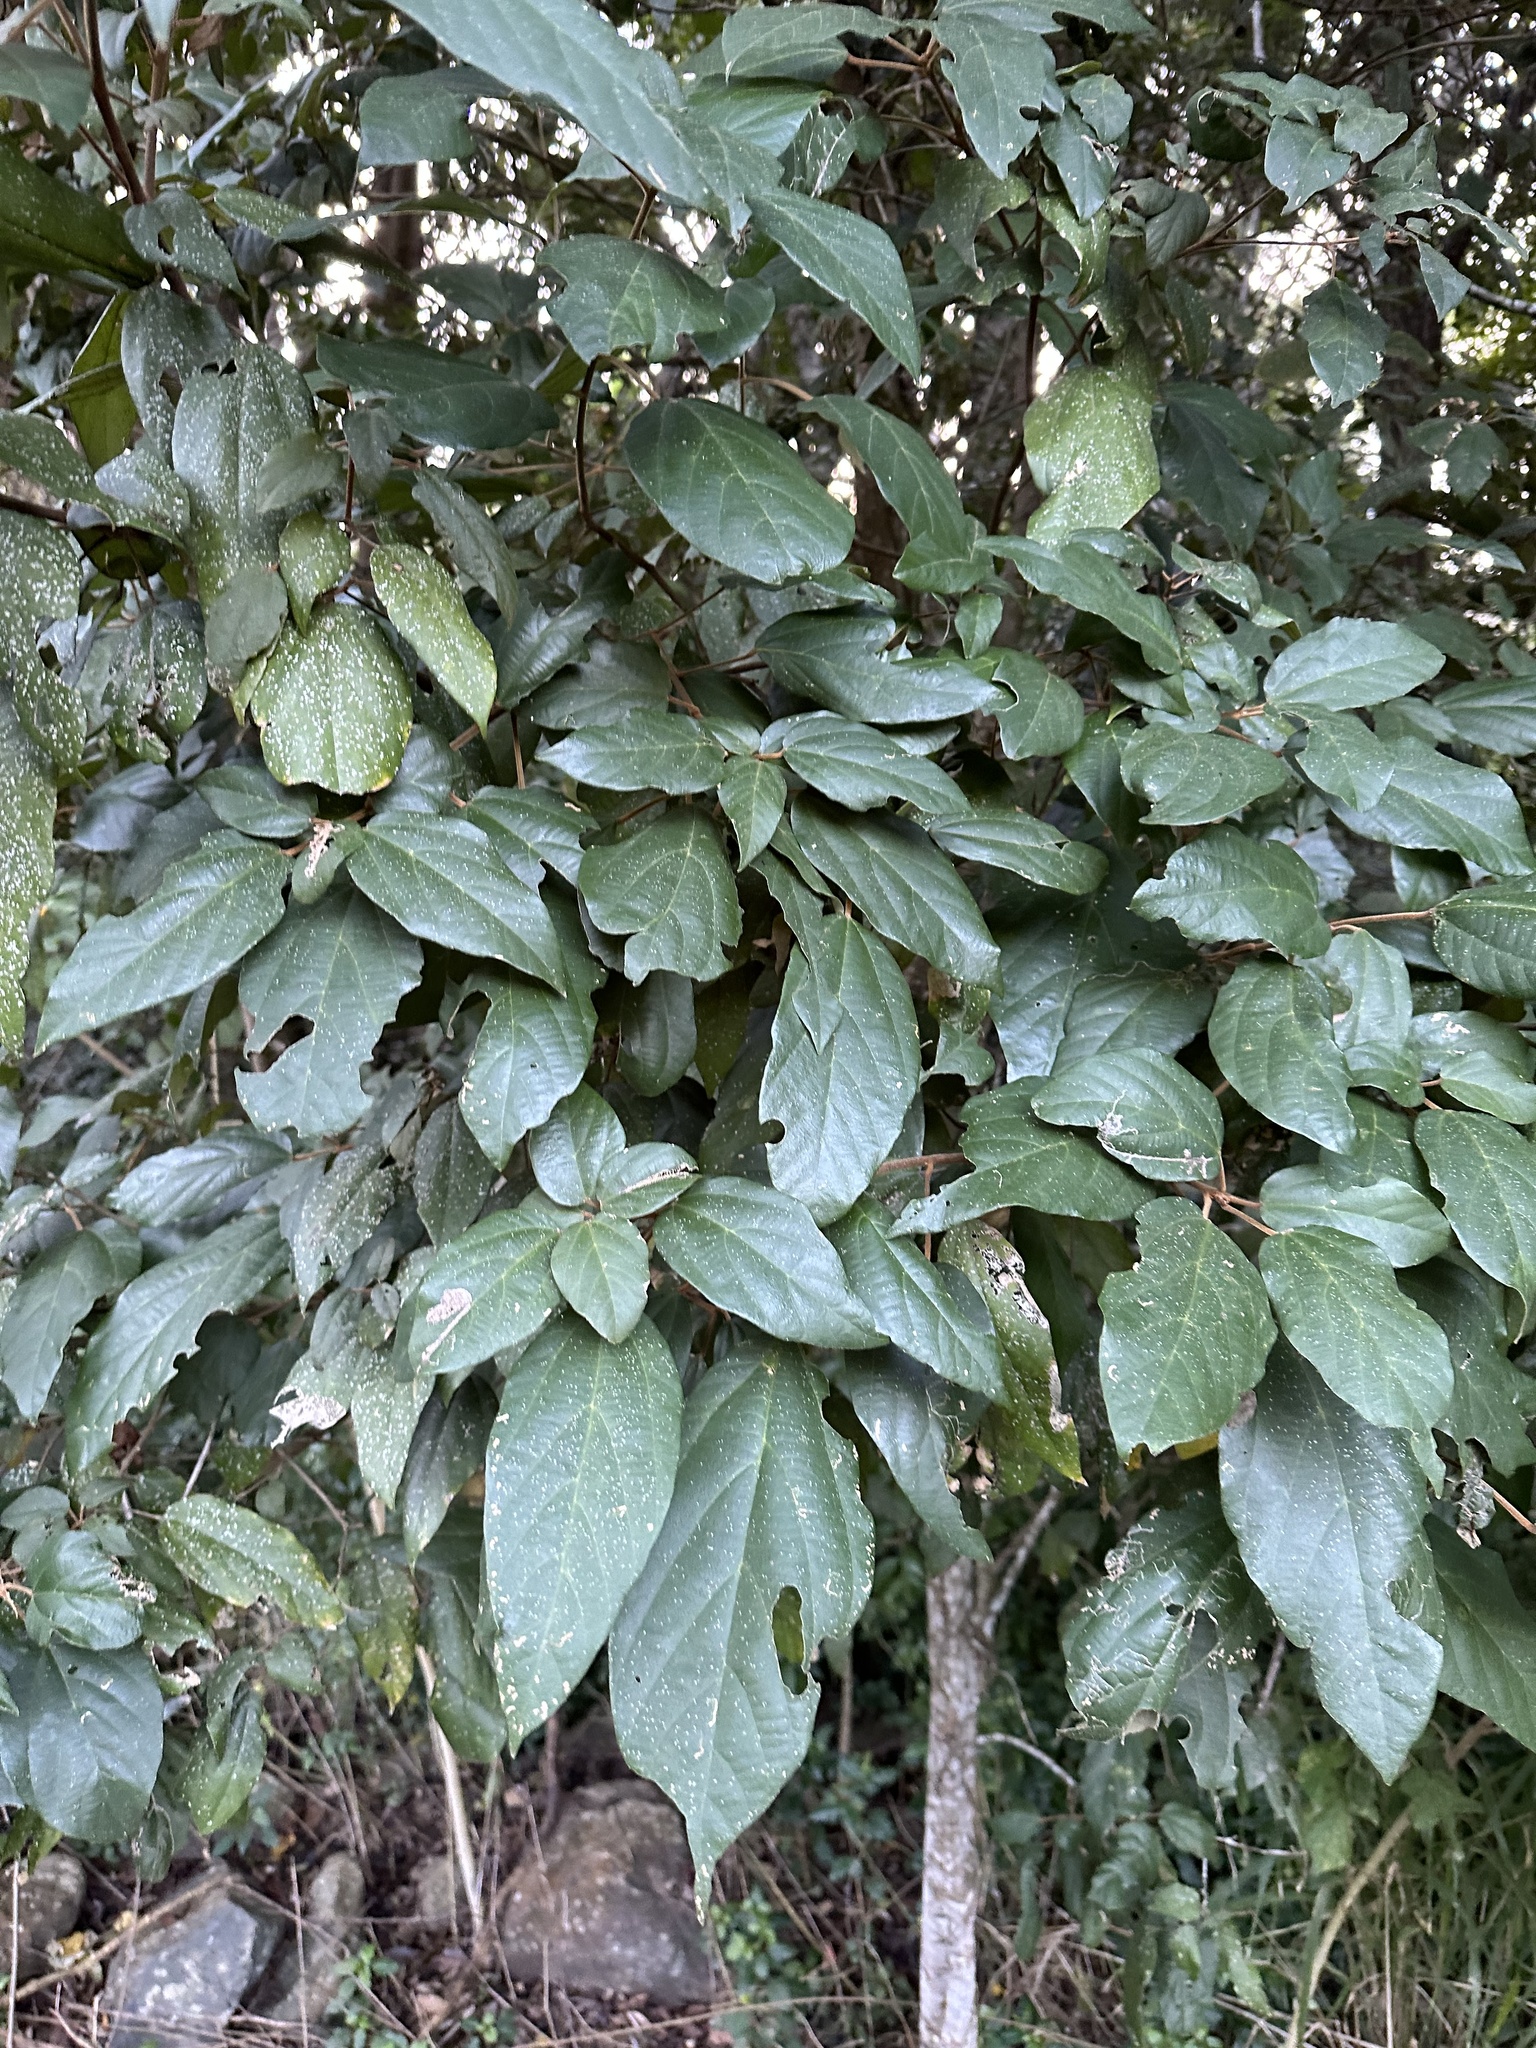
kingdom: Plantae
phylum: Tracheophyta
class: Magnoliopsida
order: Malpighiales
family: Euphorbiaceae
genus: Mallotus
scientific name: Mallotus philippensis
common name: Kamala tree
